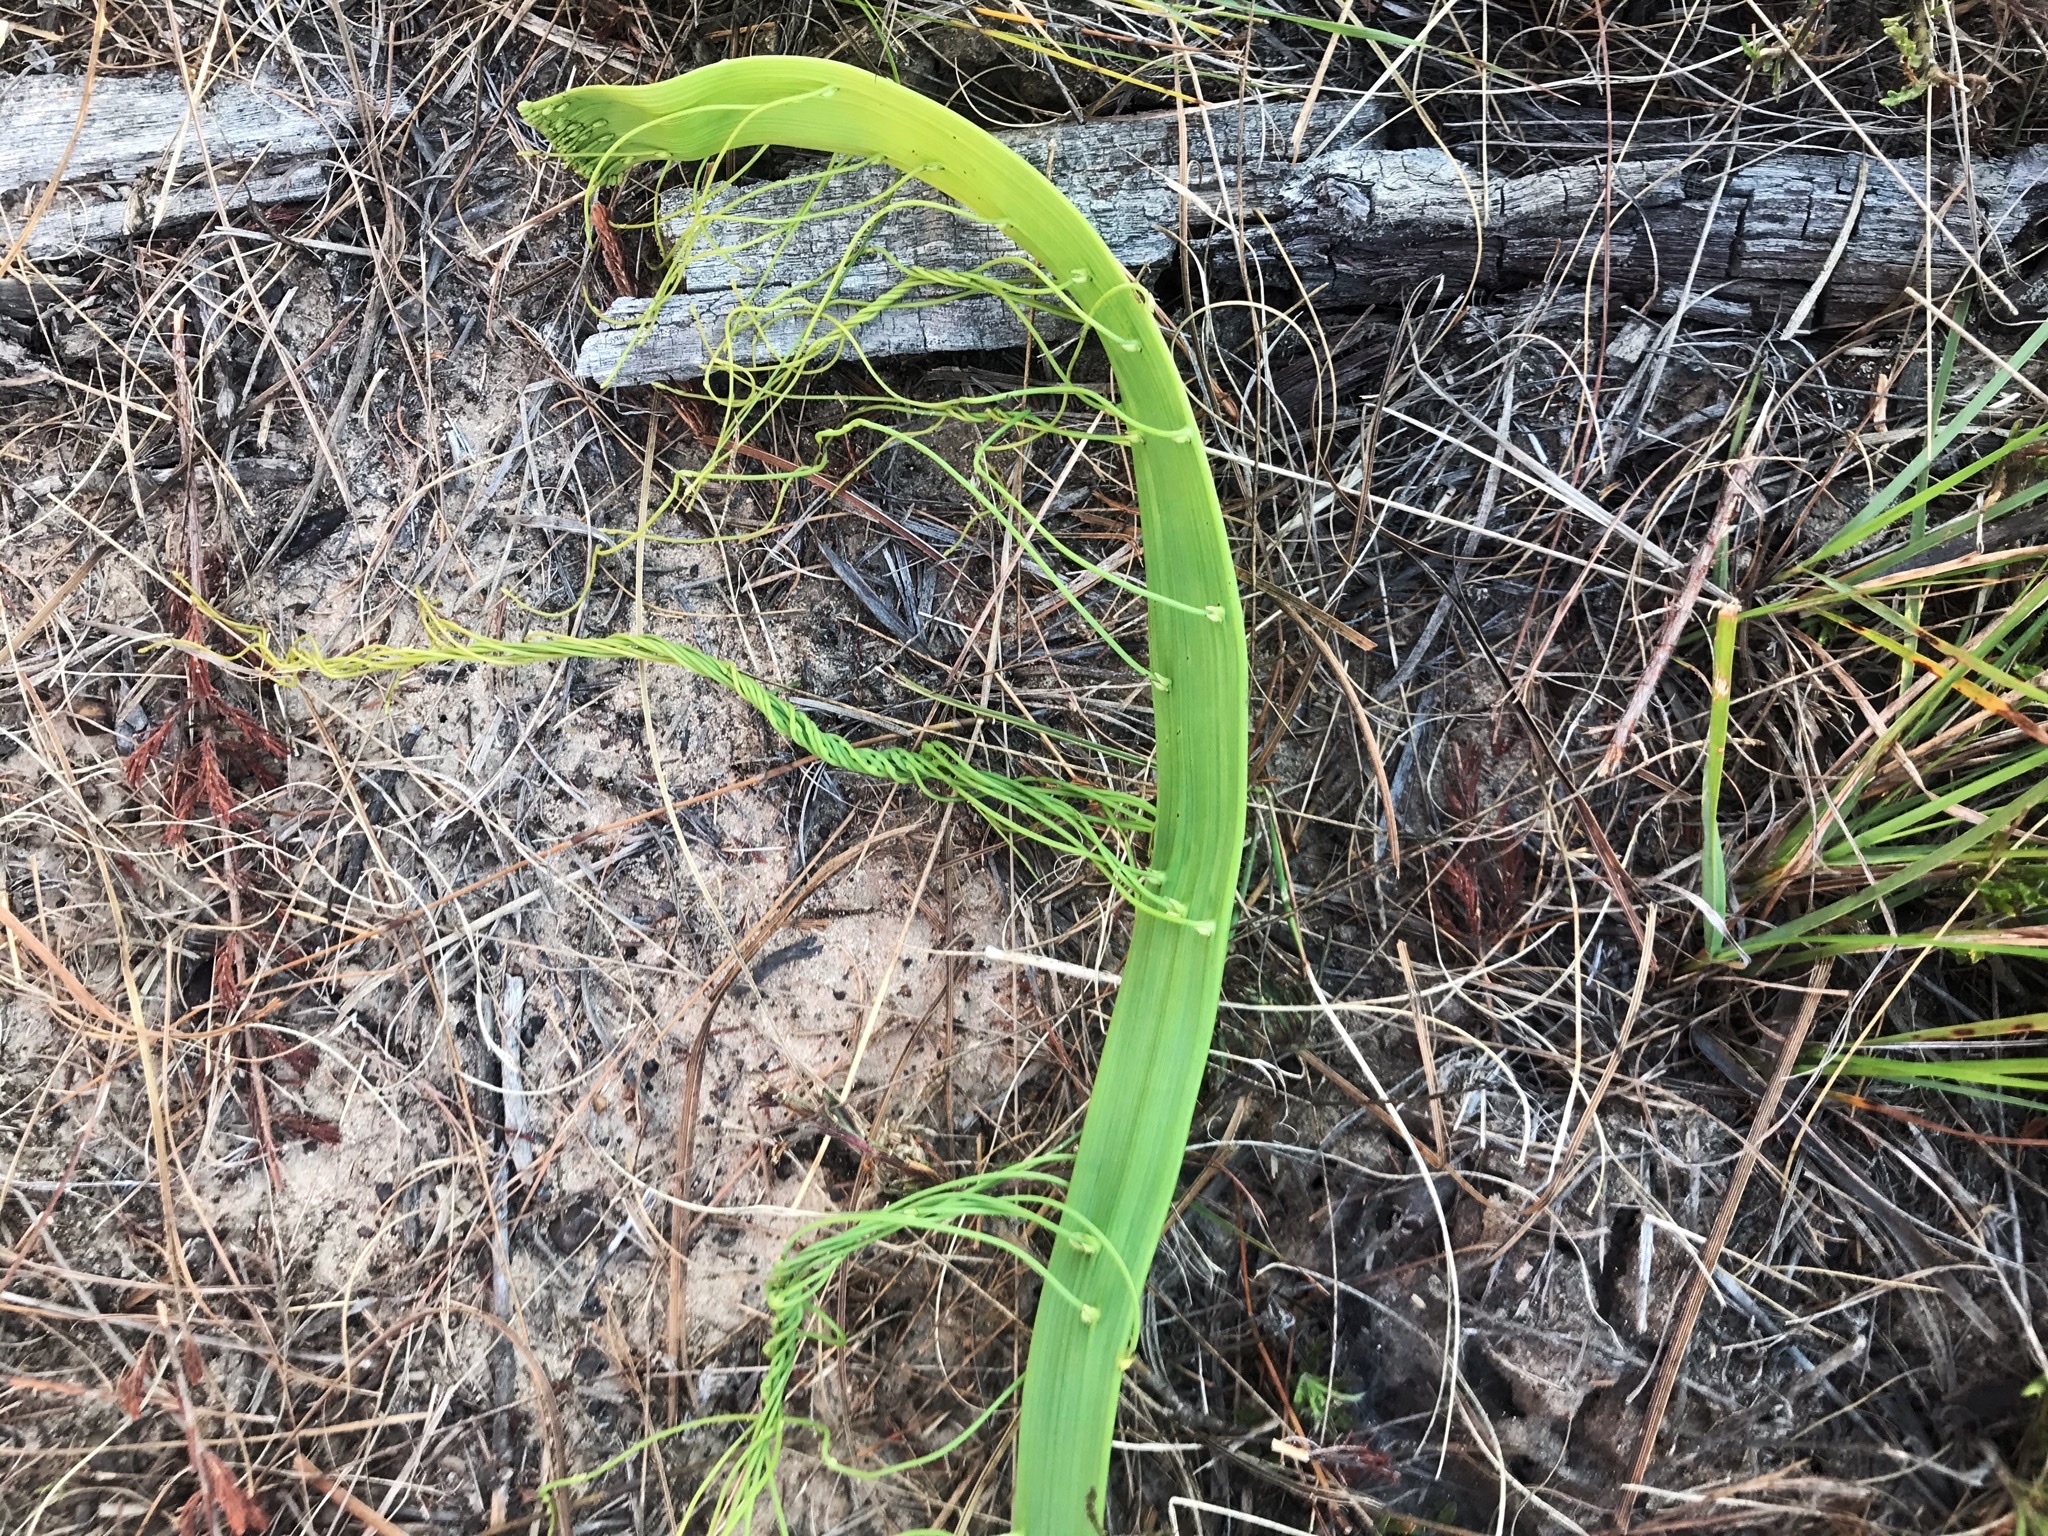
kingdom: Plantae
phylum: Tracheophyta
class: Magnoliopsida
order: Laurales
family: Lauraceae
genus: Cassytha
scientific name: Cassytha ciliolata
